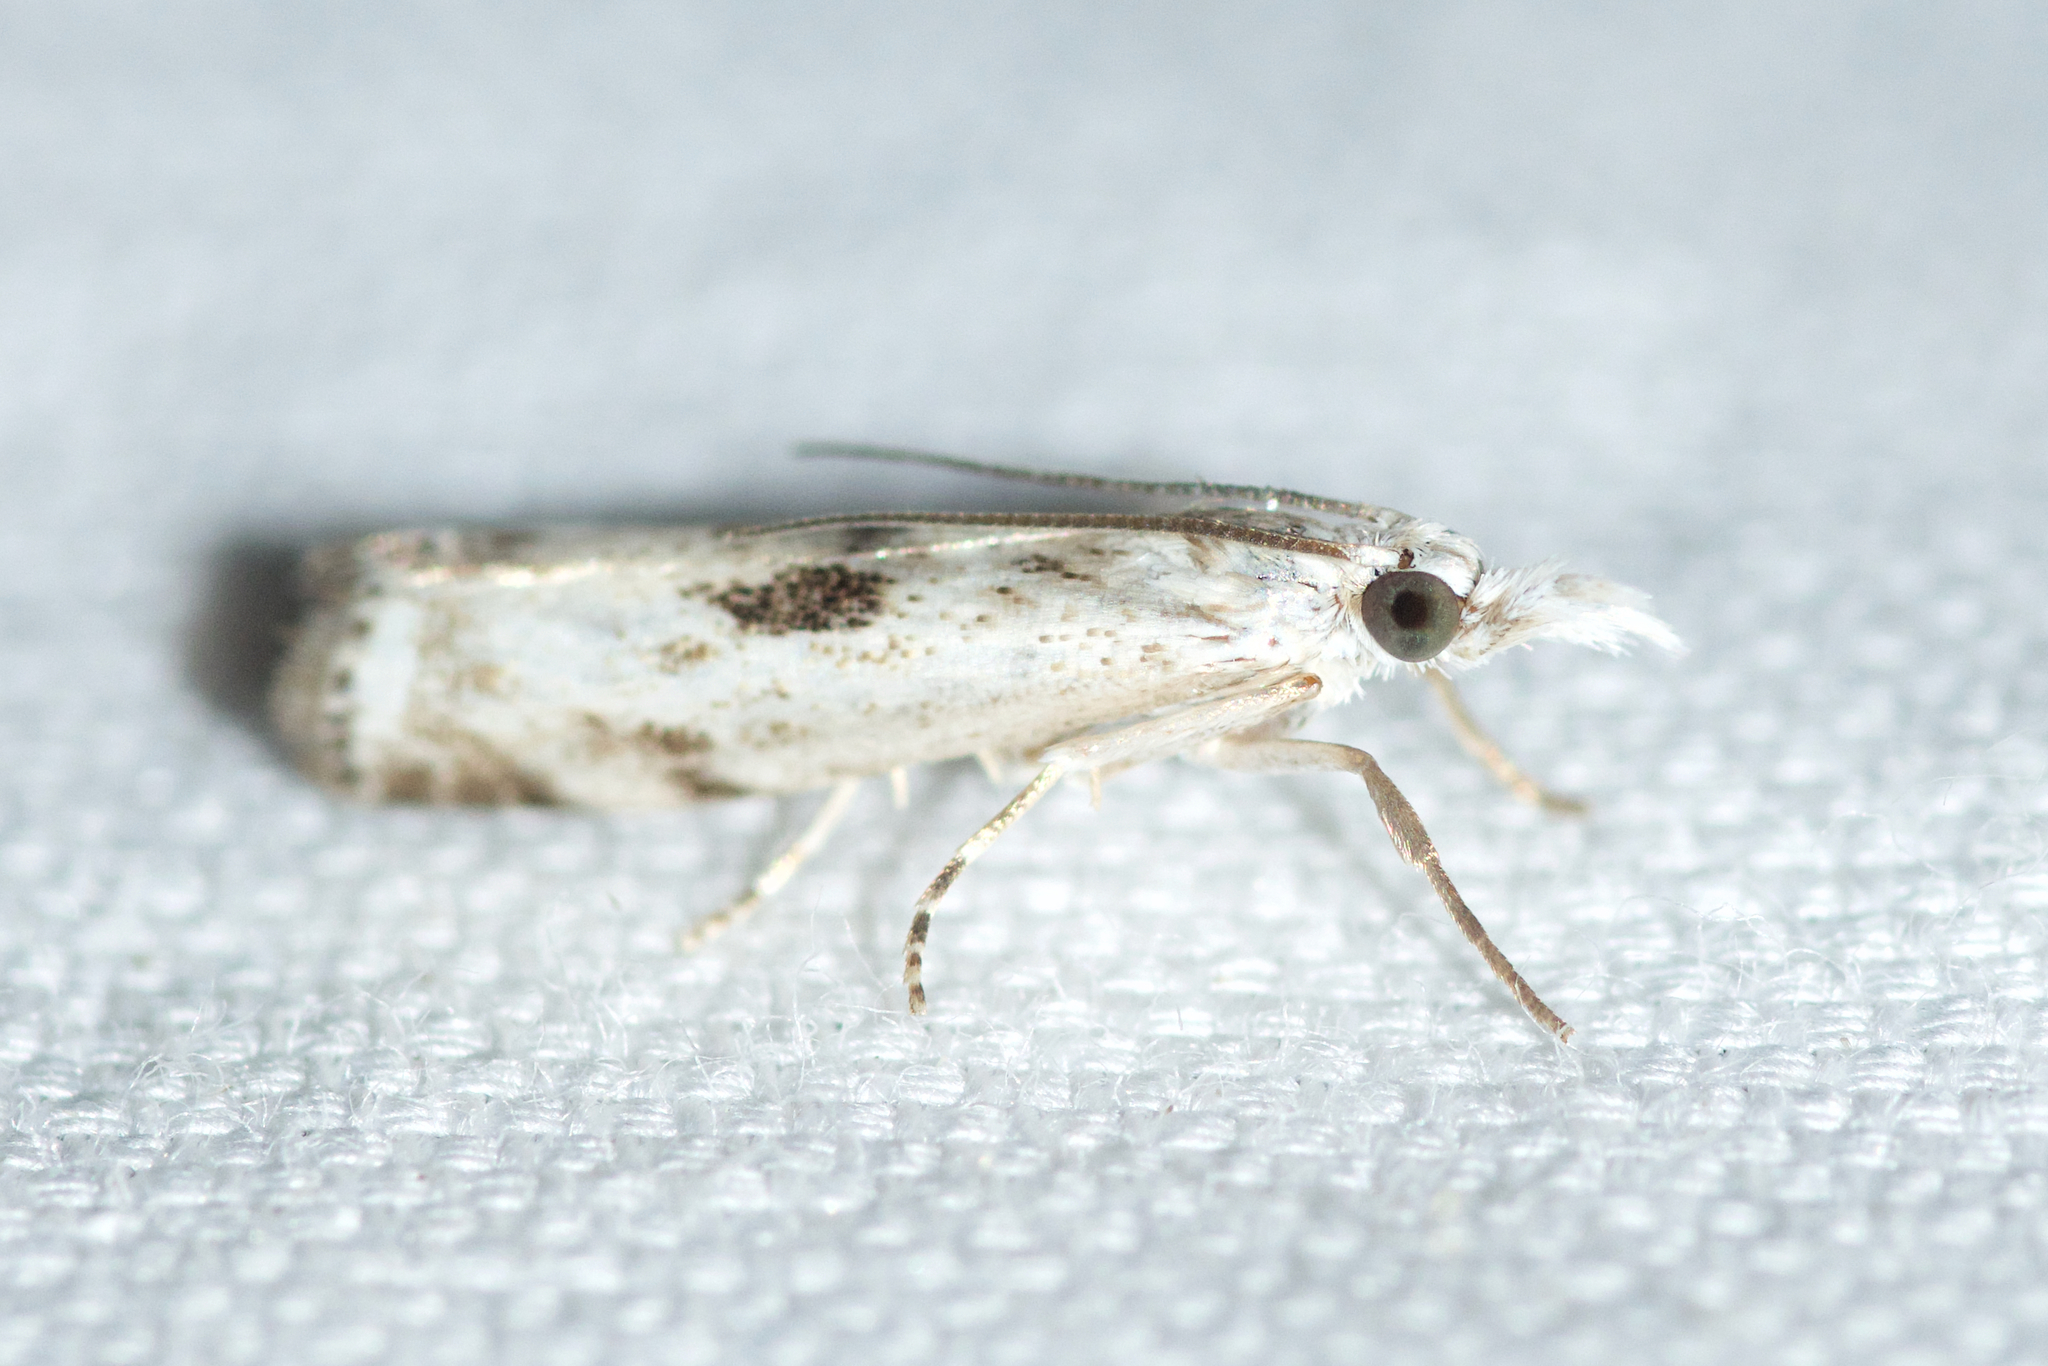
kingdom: Animalia
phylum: Arthropoda
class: Insecta
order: Lepidoptera
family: Crambidae
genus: Microcrambus
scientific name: Microcrambus immunellus
